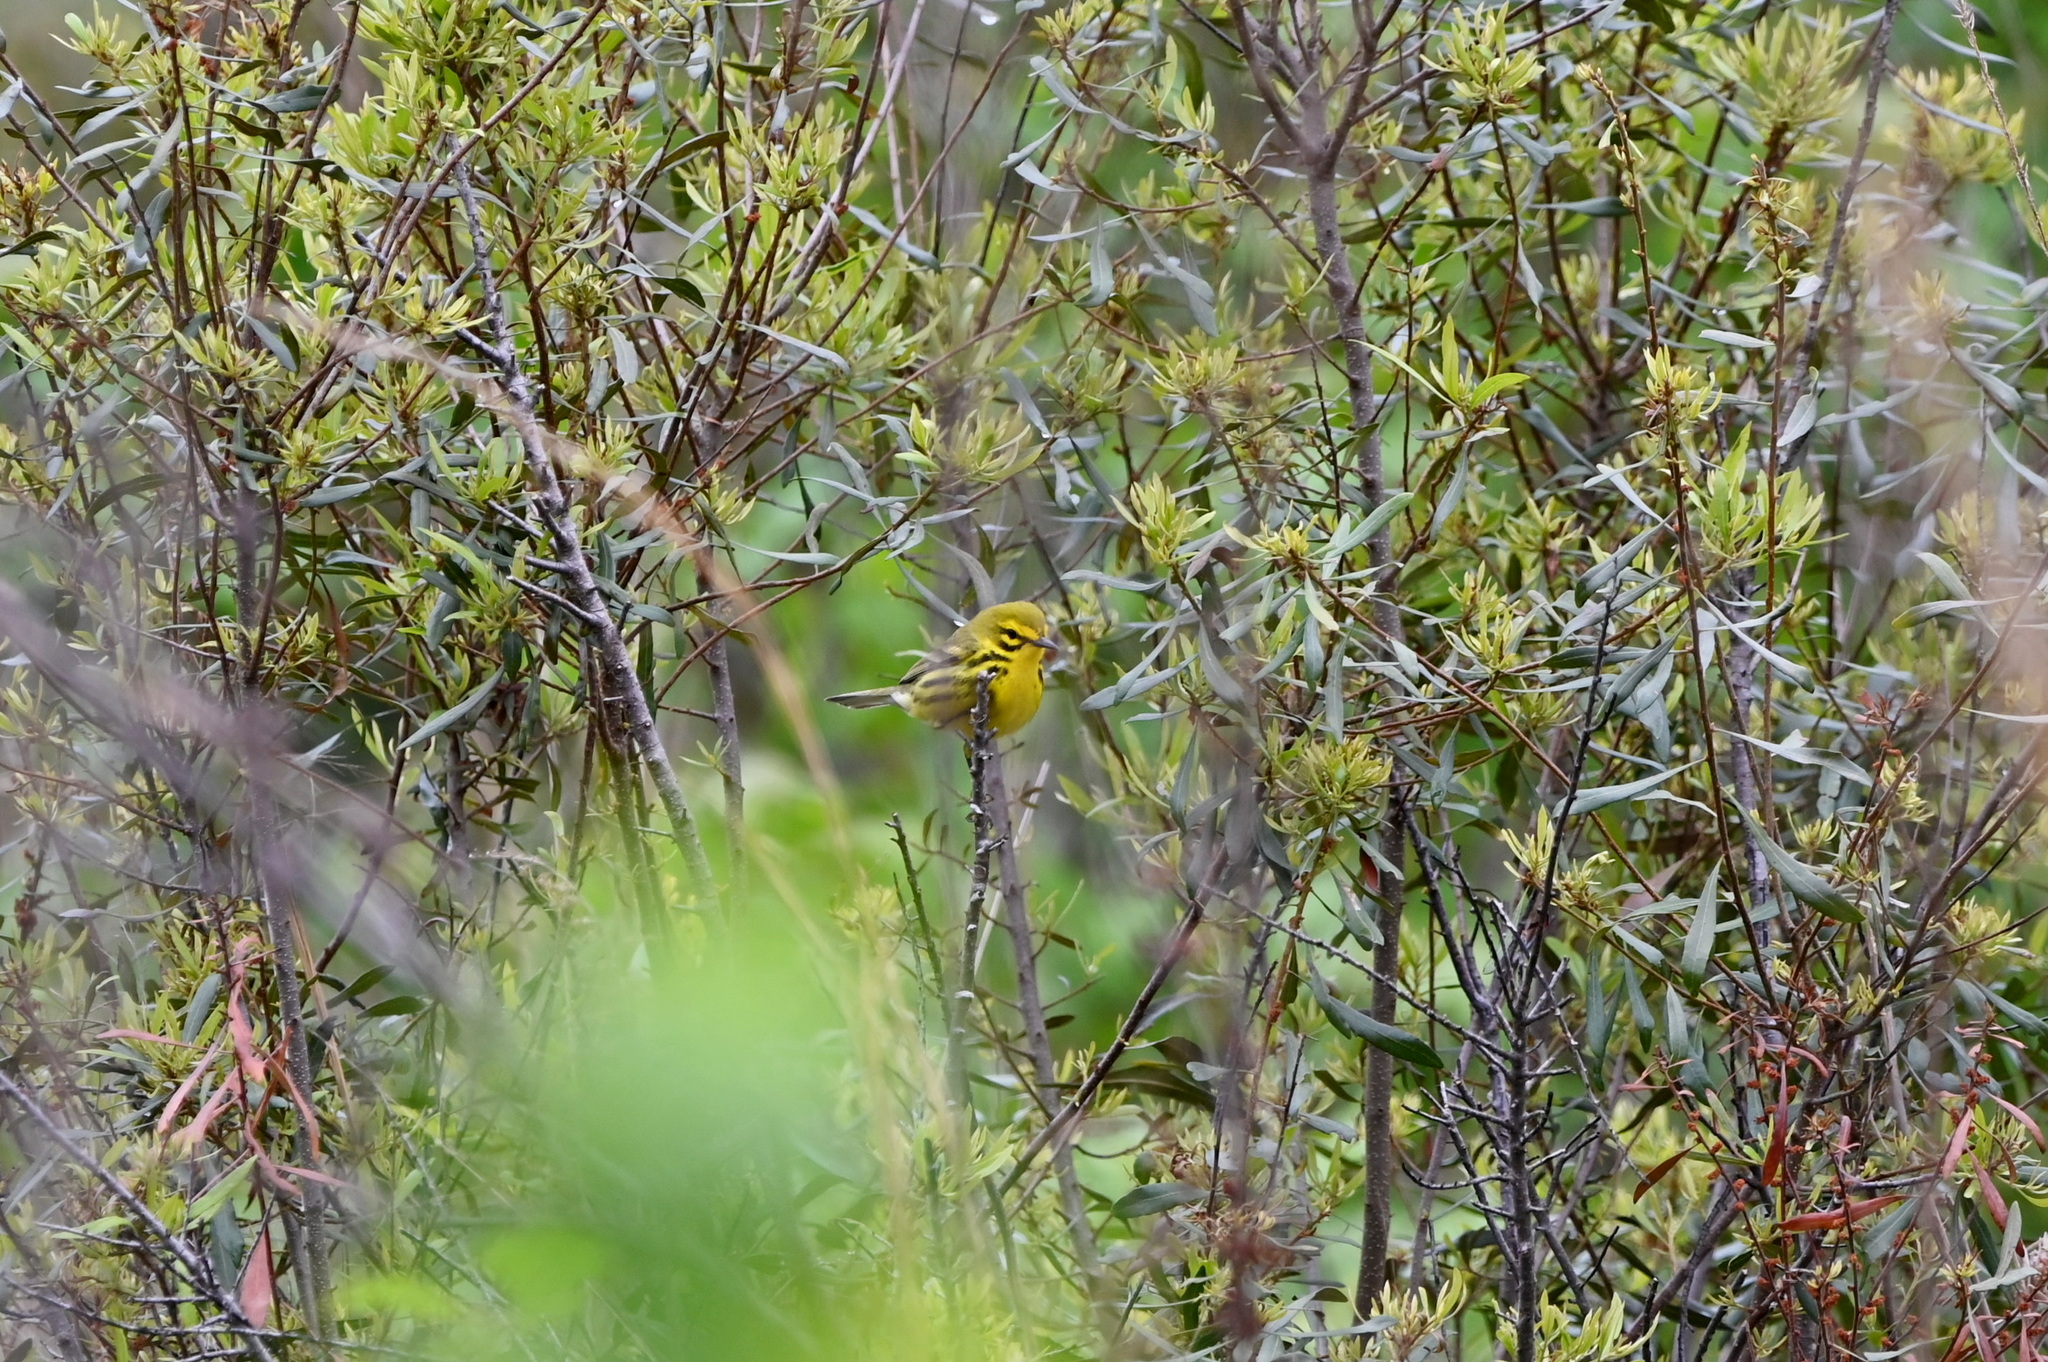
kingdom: Animalia
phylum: Chordata
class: Aves
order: Passeriformes
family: Parulidae
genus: Setophaga
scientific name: Setophaga discolor
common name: Prairie warbler
